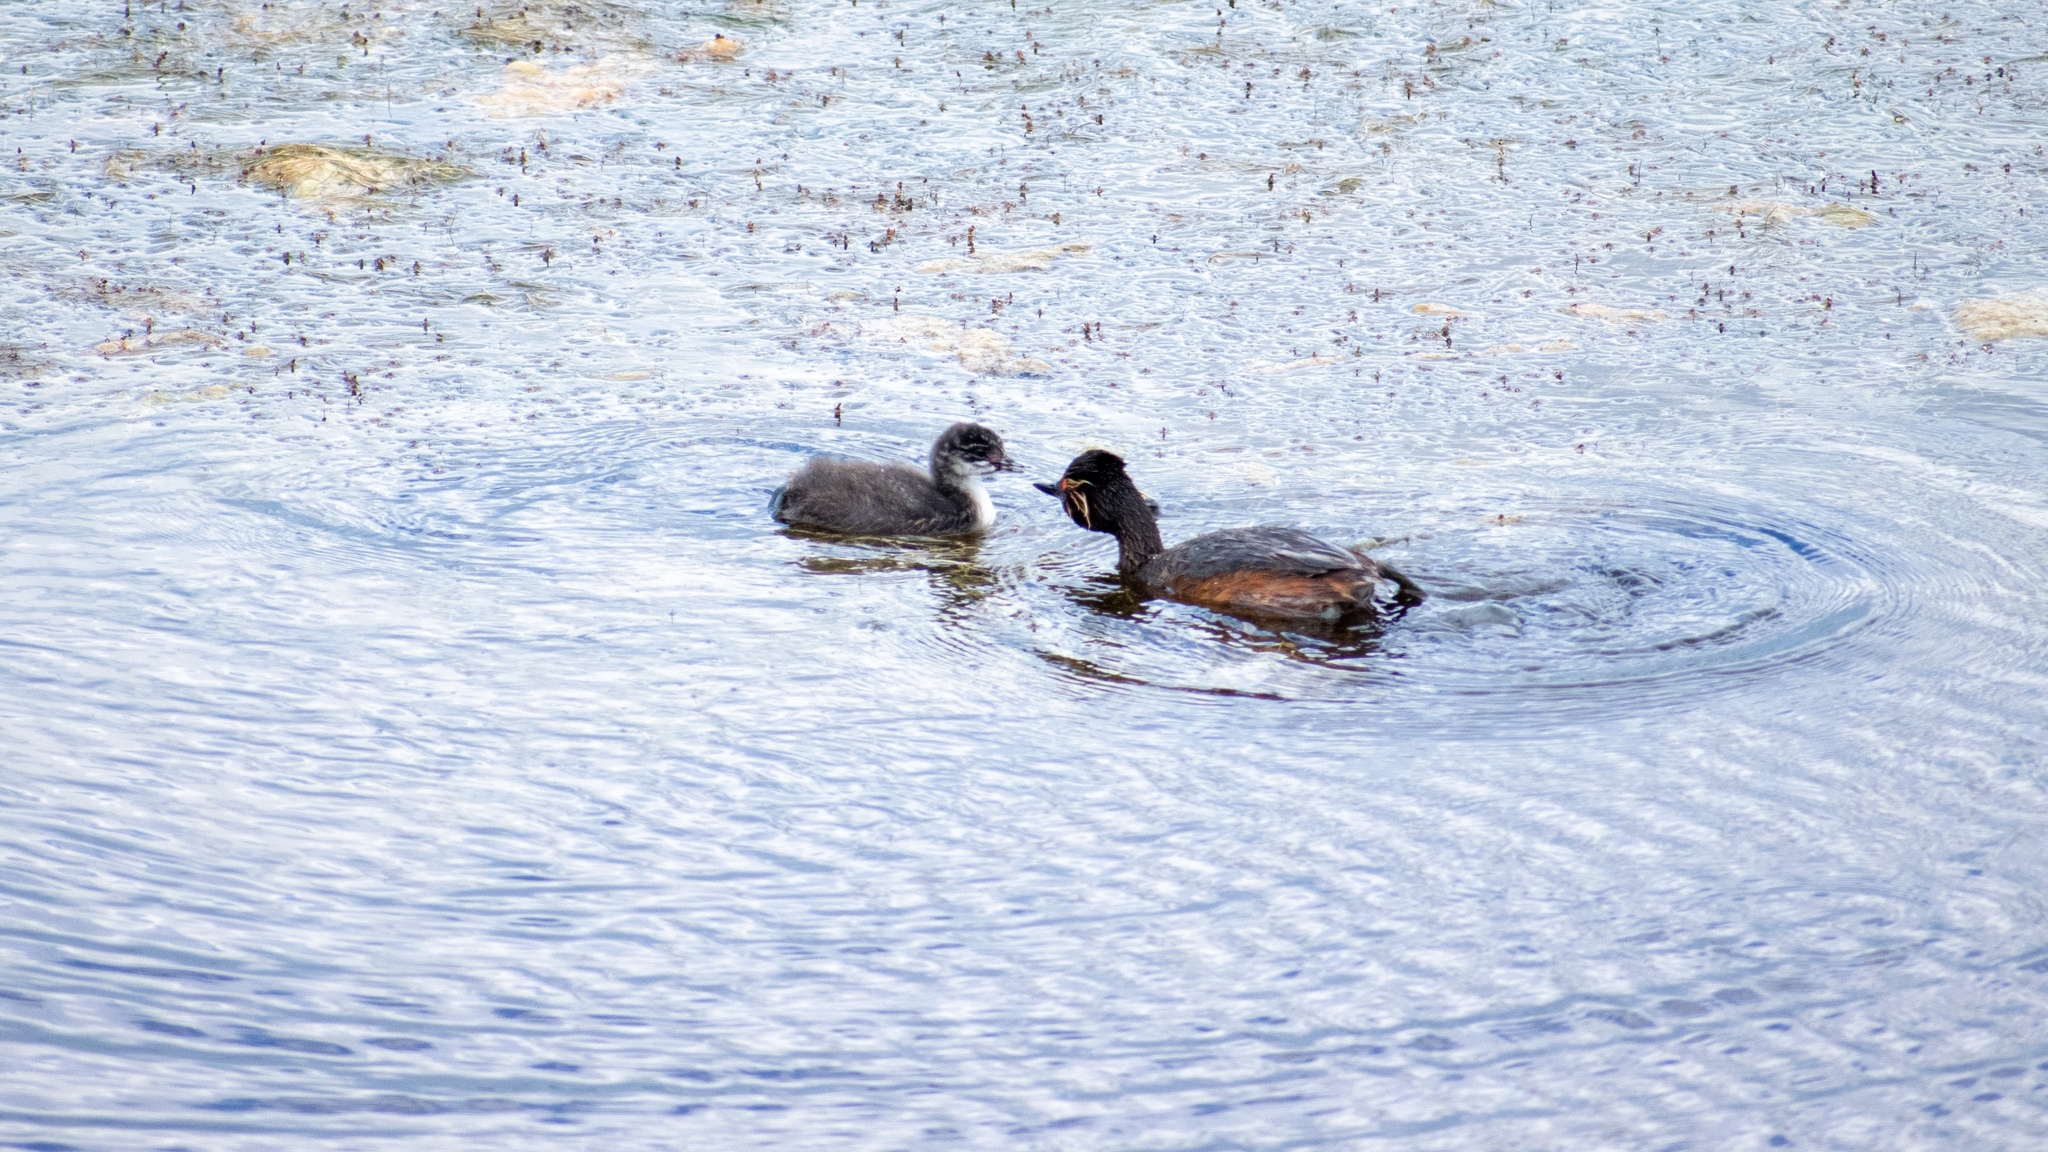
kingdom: Animalia
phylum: Chordata
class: Aves
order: Podicipediformes
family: Podicipedidae
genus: Podiceps
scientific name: Podiceps nigricollis
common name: Black-necked grebe
